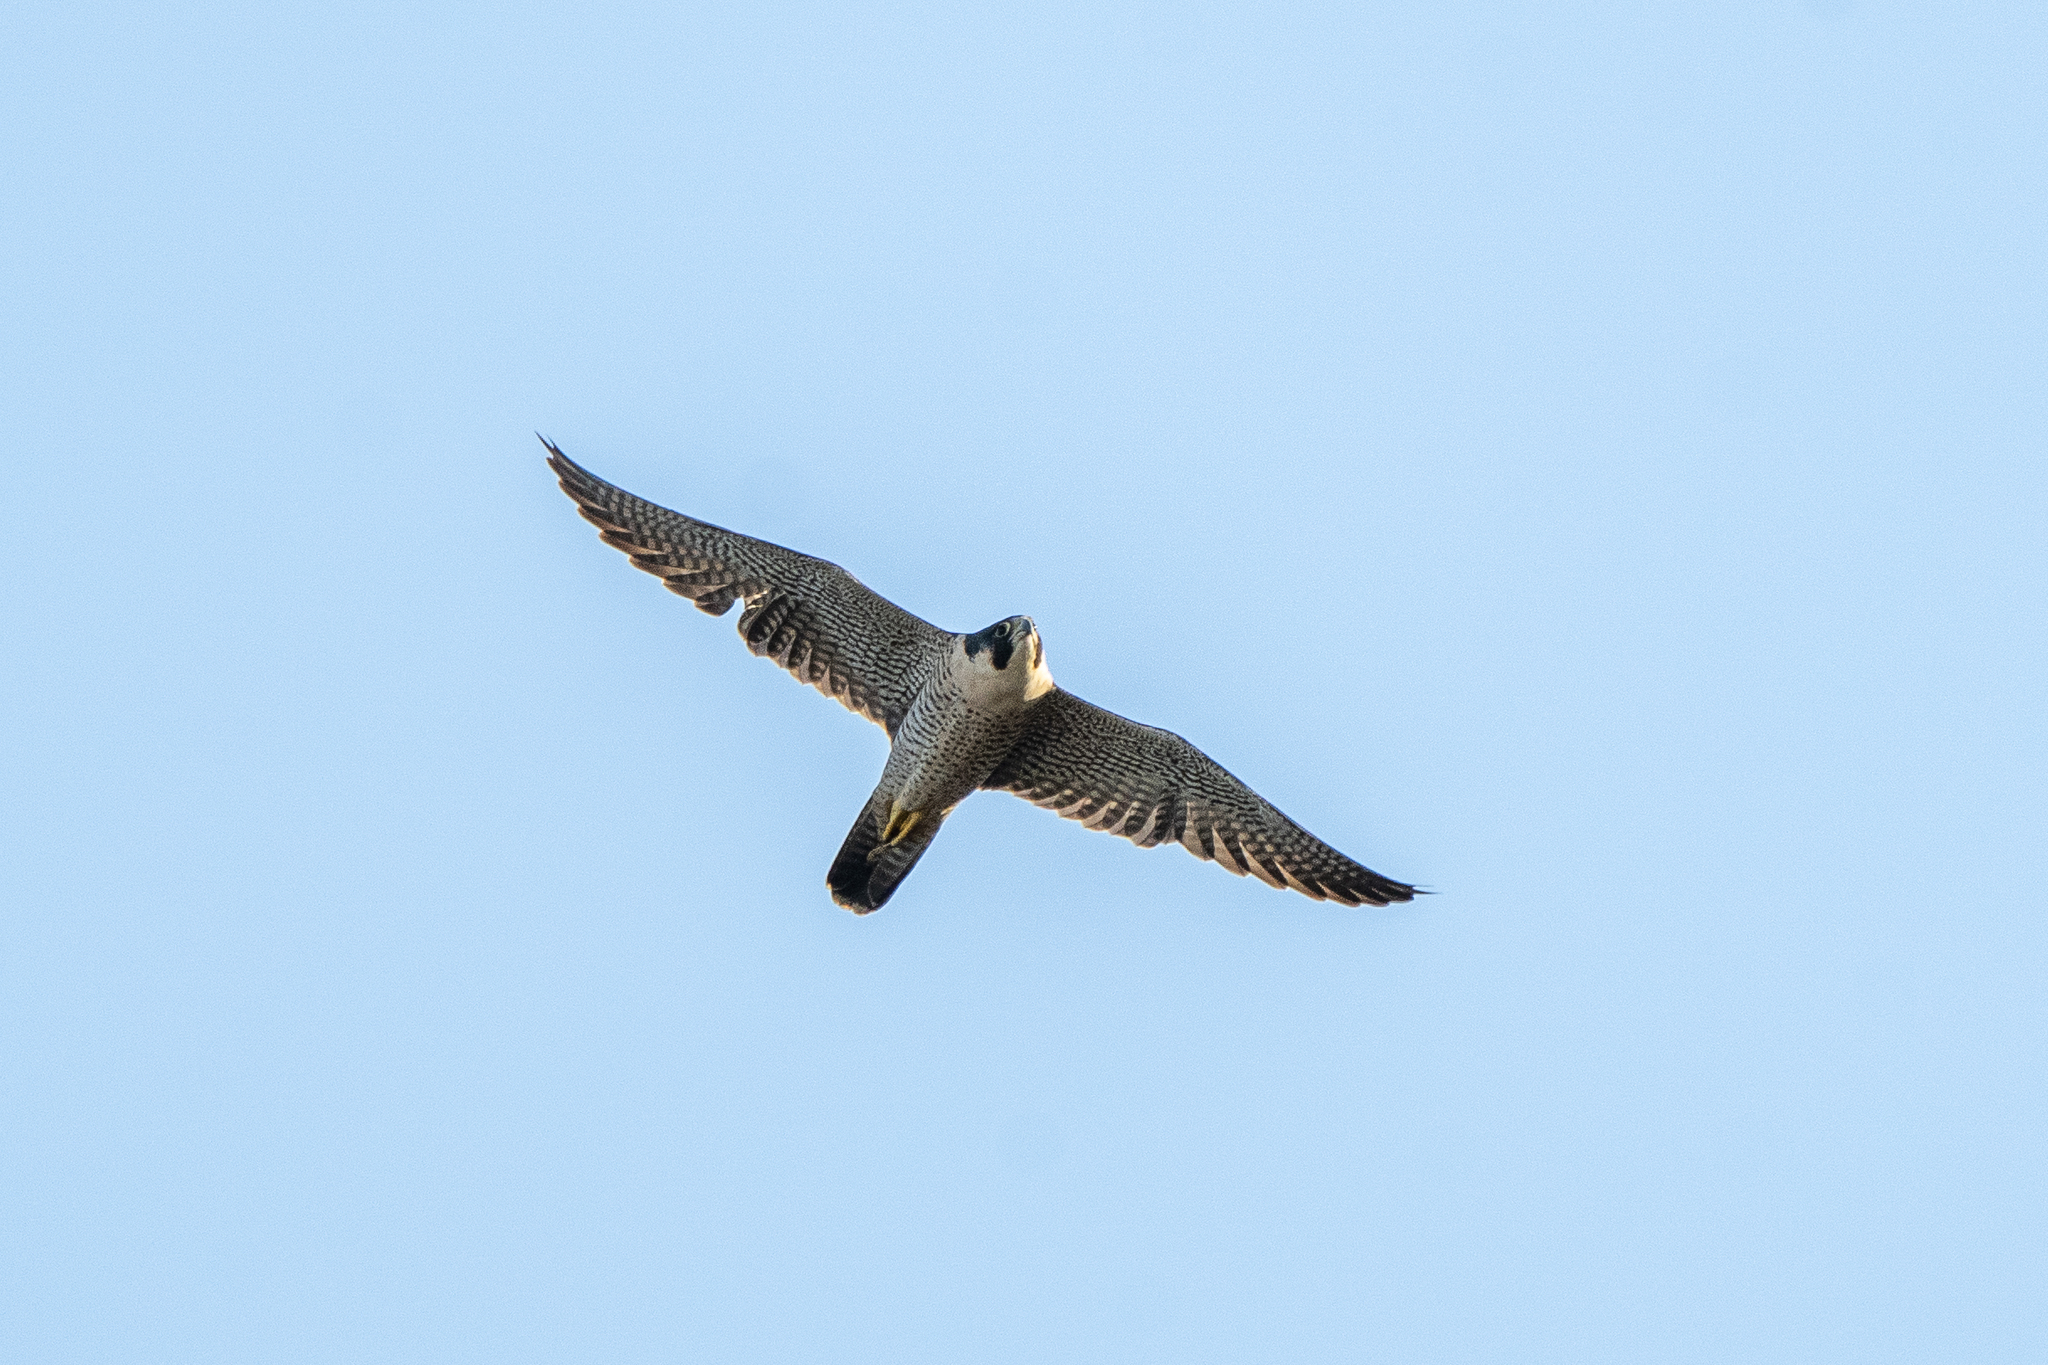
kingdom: Animalia
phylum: Chordata
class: Aves
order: Falconiformes
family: Falconidae
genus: Falco
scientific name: Falco peregrinus
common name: Peregrine falcon
